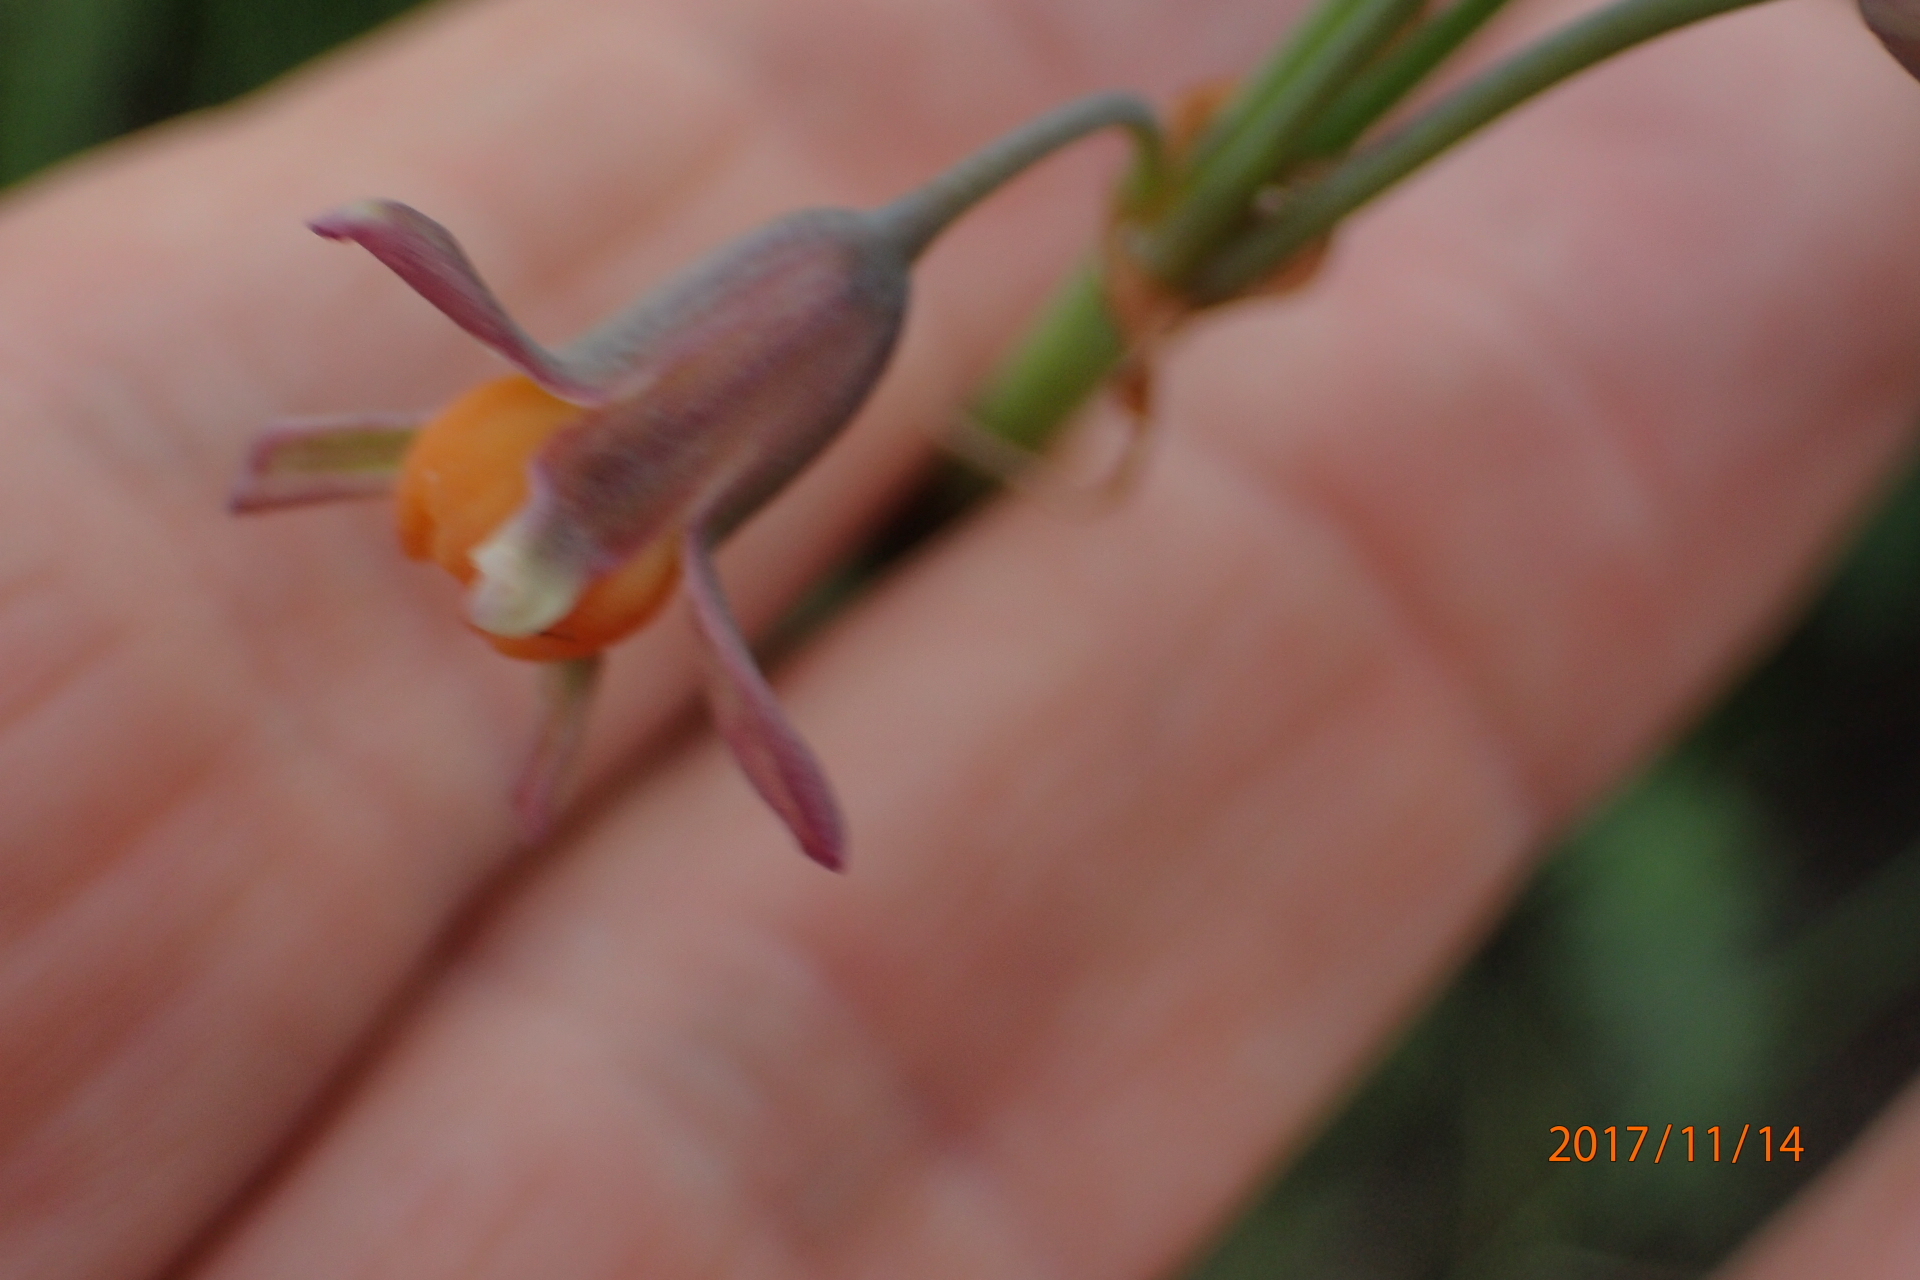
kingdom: Plantae
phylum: Tracheophyta
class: Liliopsida
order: Asparagales
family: Amaryllidaceae
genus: Tulbaghia
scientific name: Tulbaghia acutiloba
